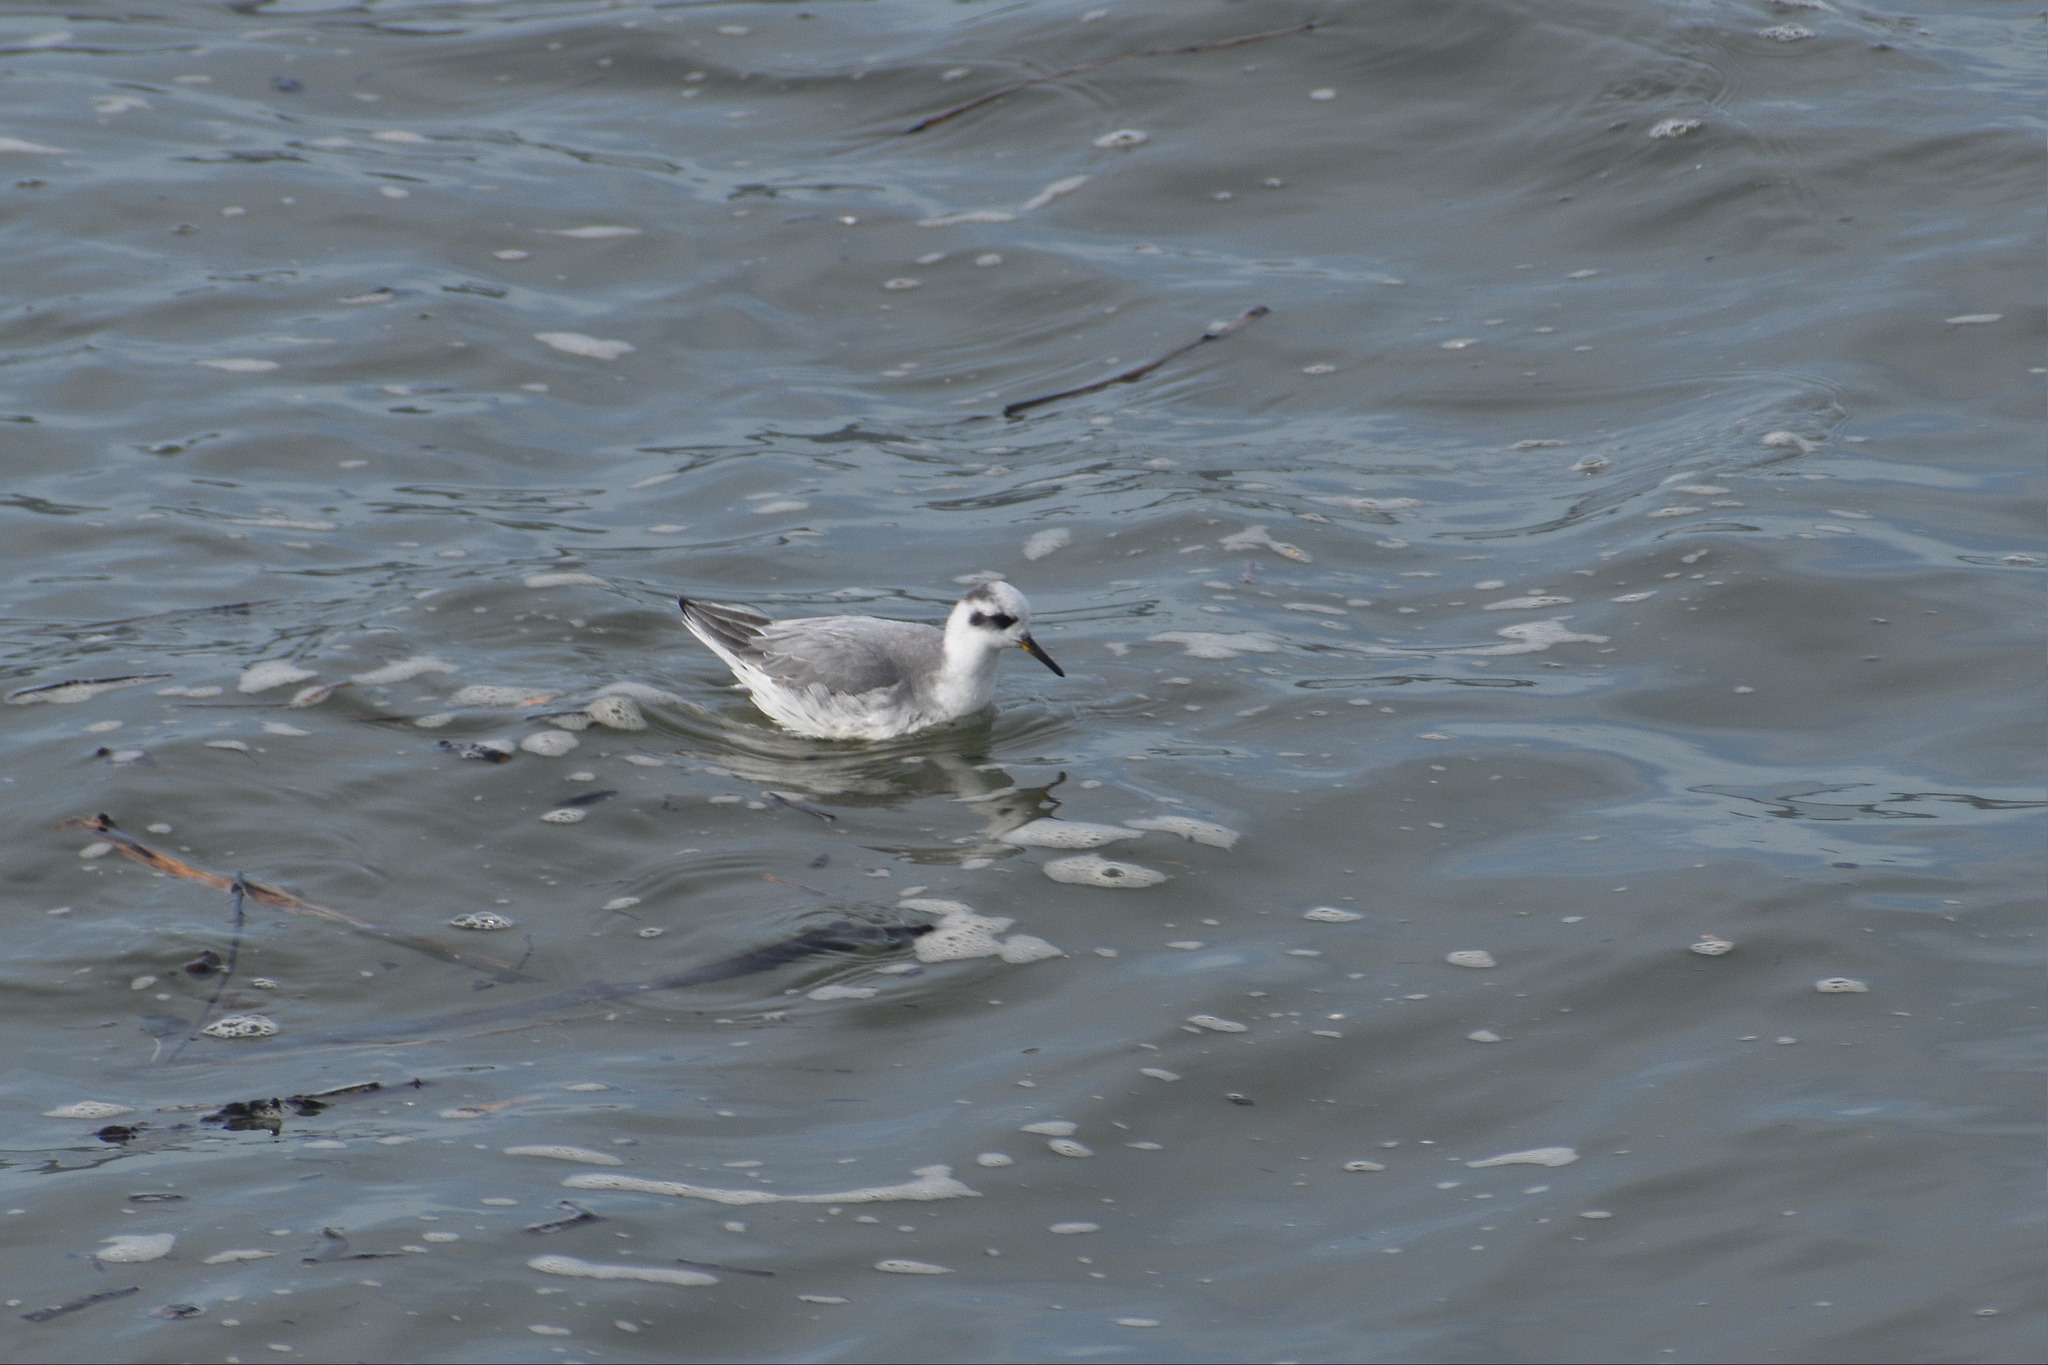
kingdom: Animalia
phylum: Chordata
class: Aves
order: Charadriiformes
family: Scolopacidae
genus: Phalaropus
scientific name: Phalaropus fulicarius
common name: Red phalarope
